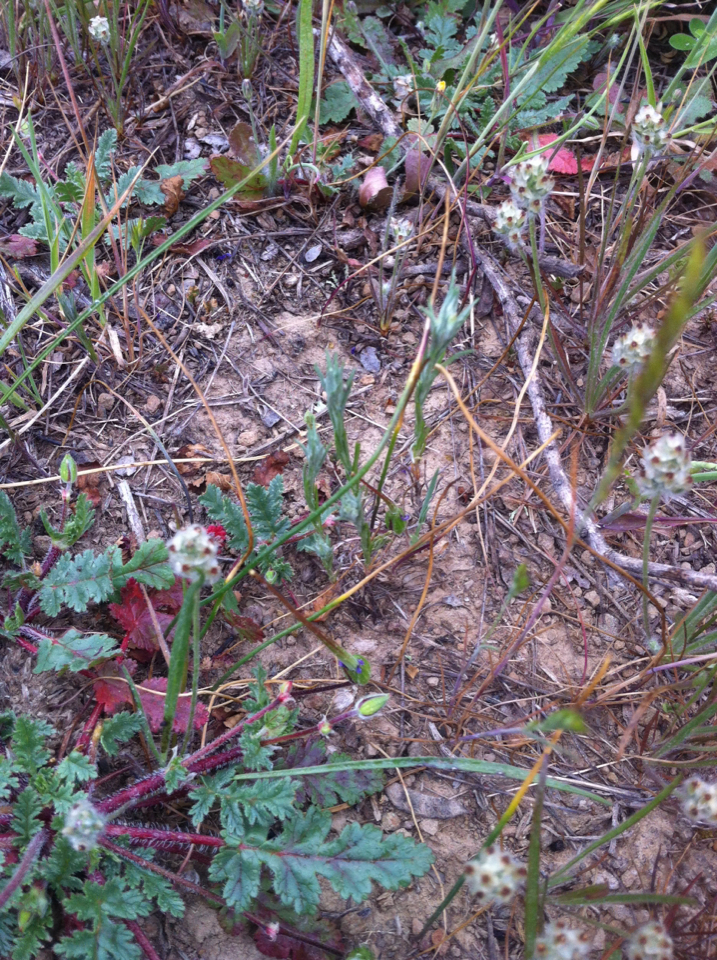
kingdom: Plantae
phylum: Tracheophyta
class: Magnoliopsida
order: Lamiales
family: Plantaginaceae
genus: Plantago
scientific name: Plantago erecta
